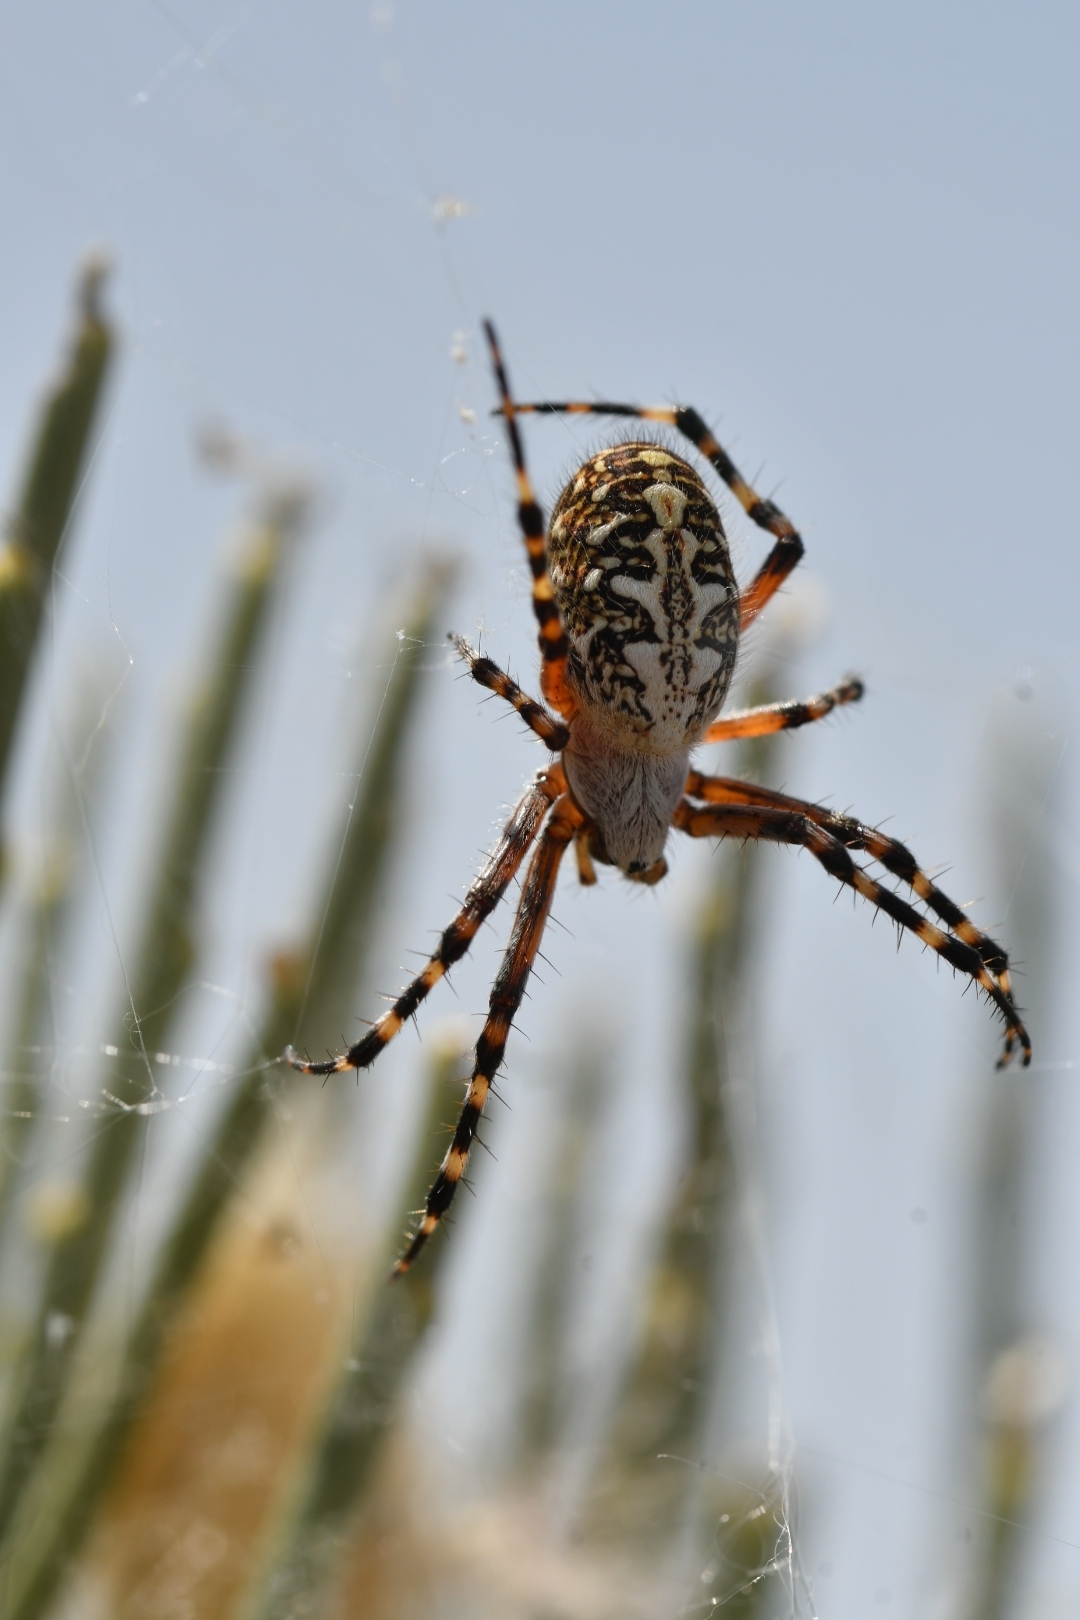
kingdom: Animalia
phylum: Arthropoda
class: Arachnida
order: Araneae
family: Araneidae
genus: Araneus
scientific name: Araneus annulipes
